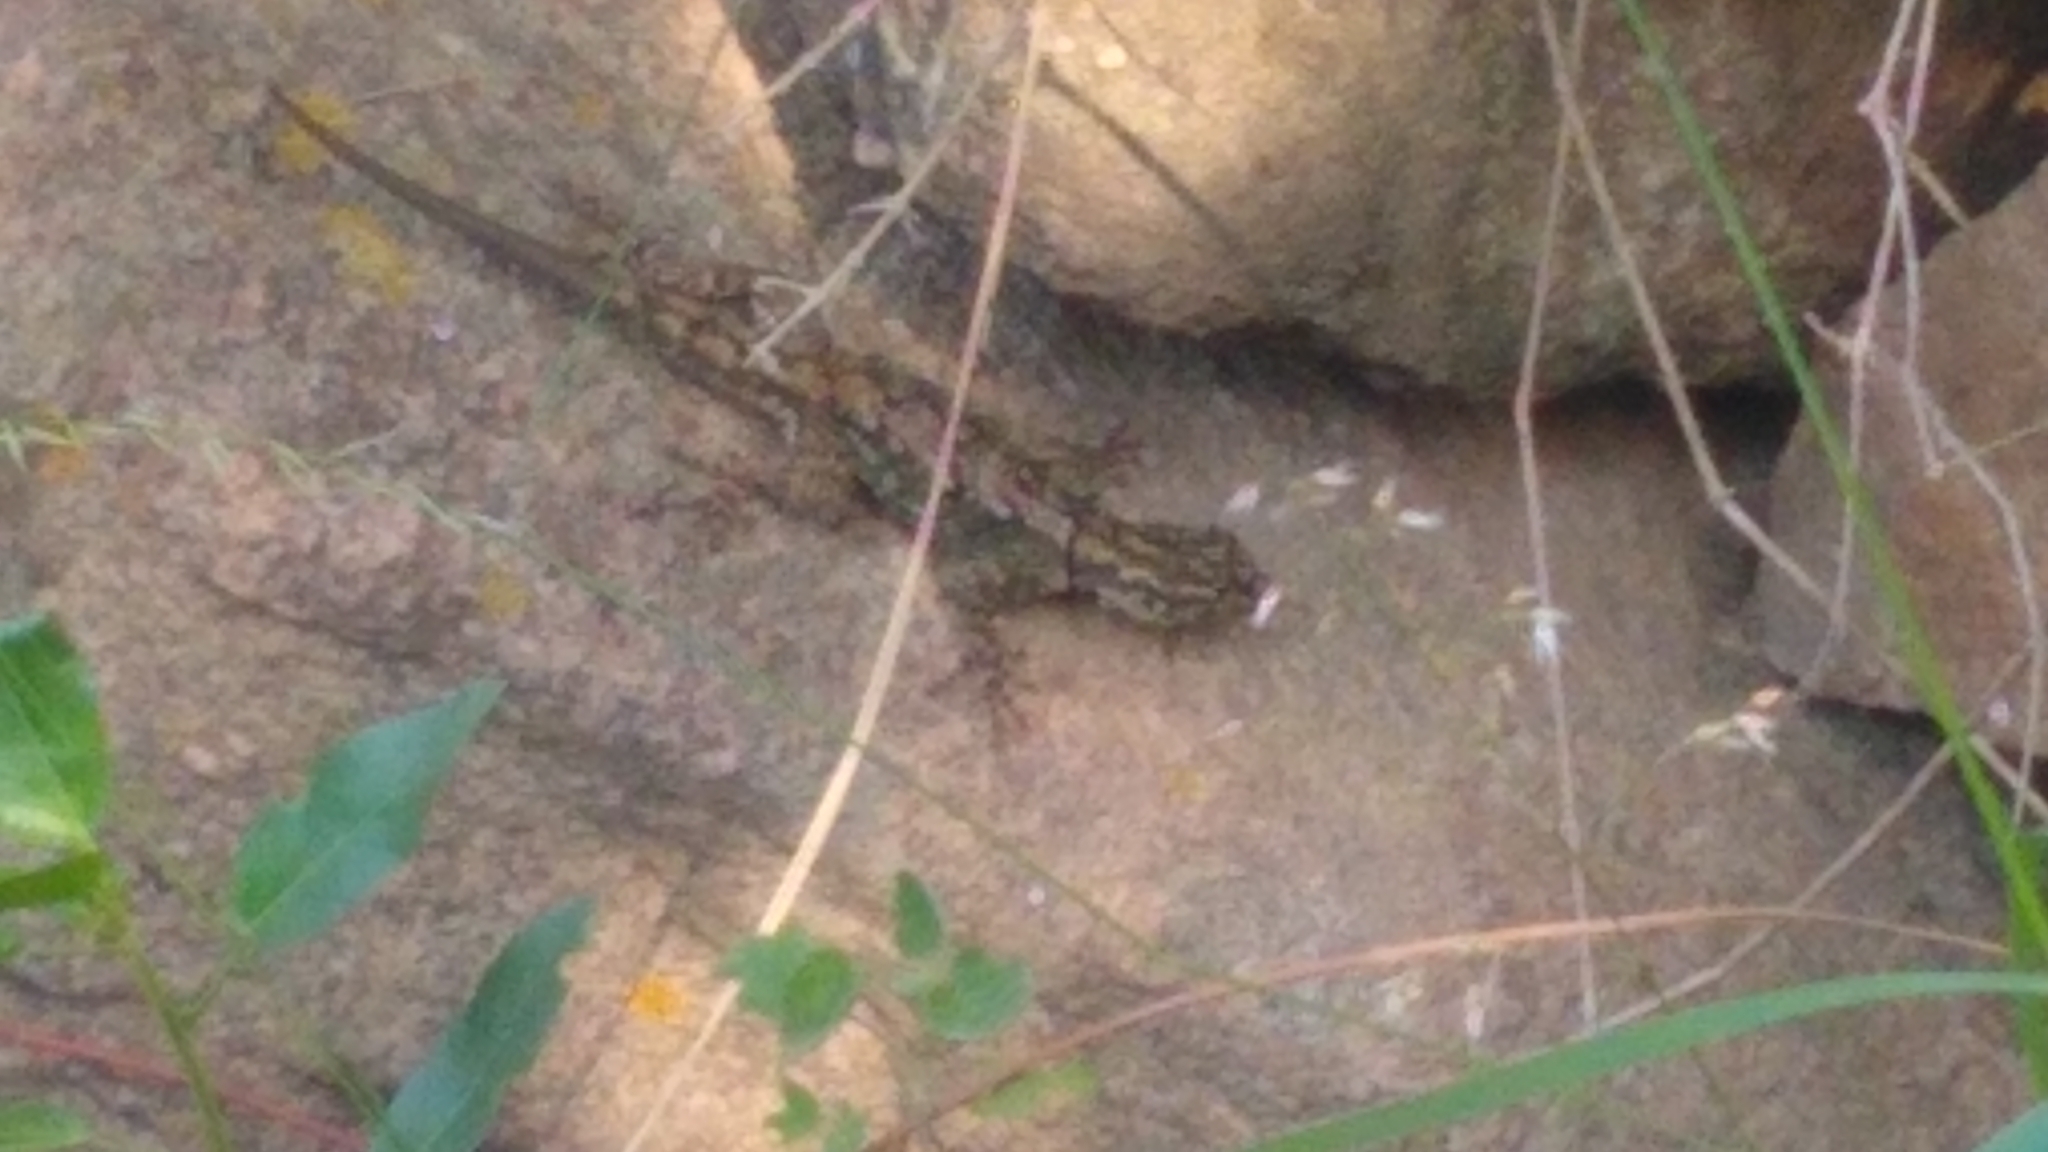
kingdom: Animalia
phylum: Chordata
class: Squamata
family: Tropiduridae
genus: Tropidurus
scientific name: Tropidurus spinulosus
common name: Spiny lava lizard
